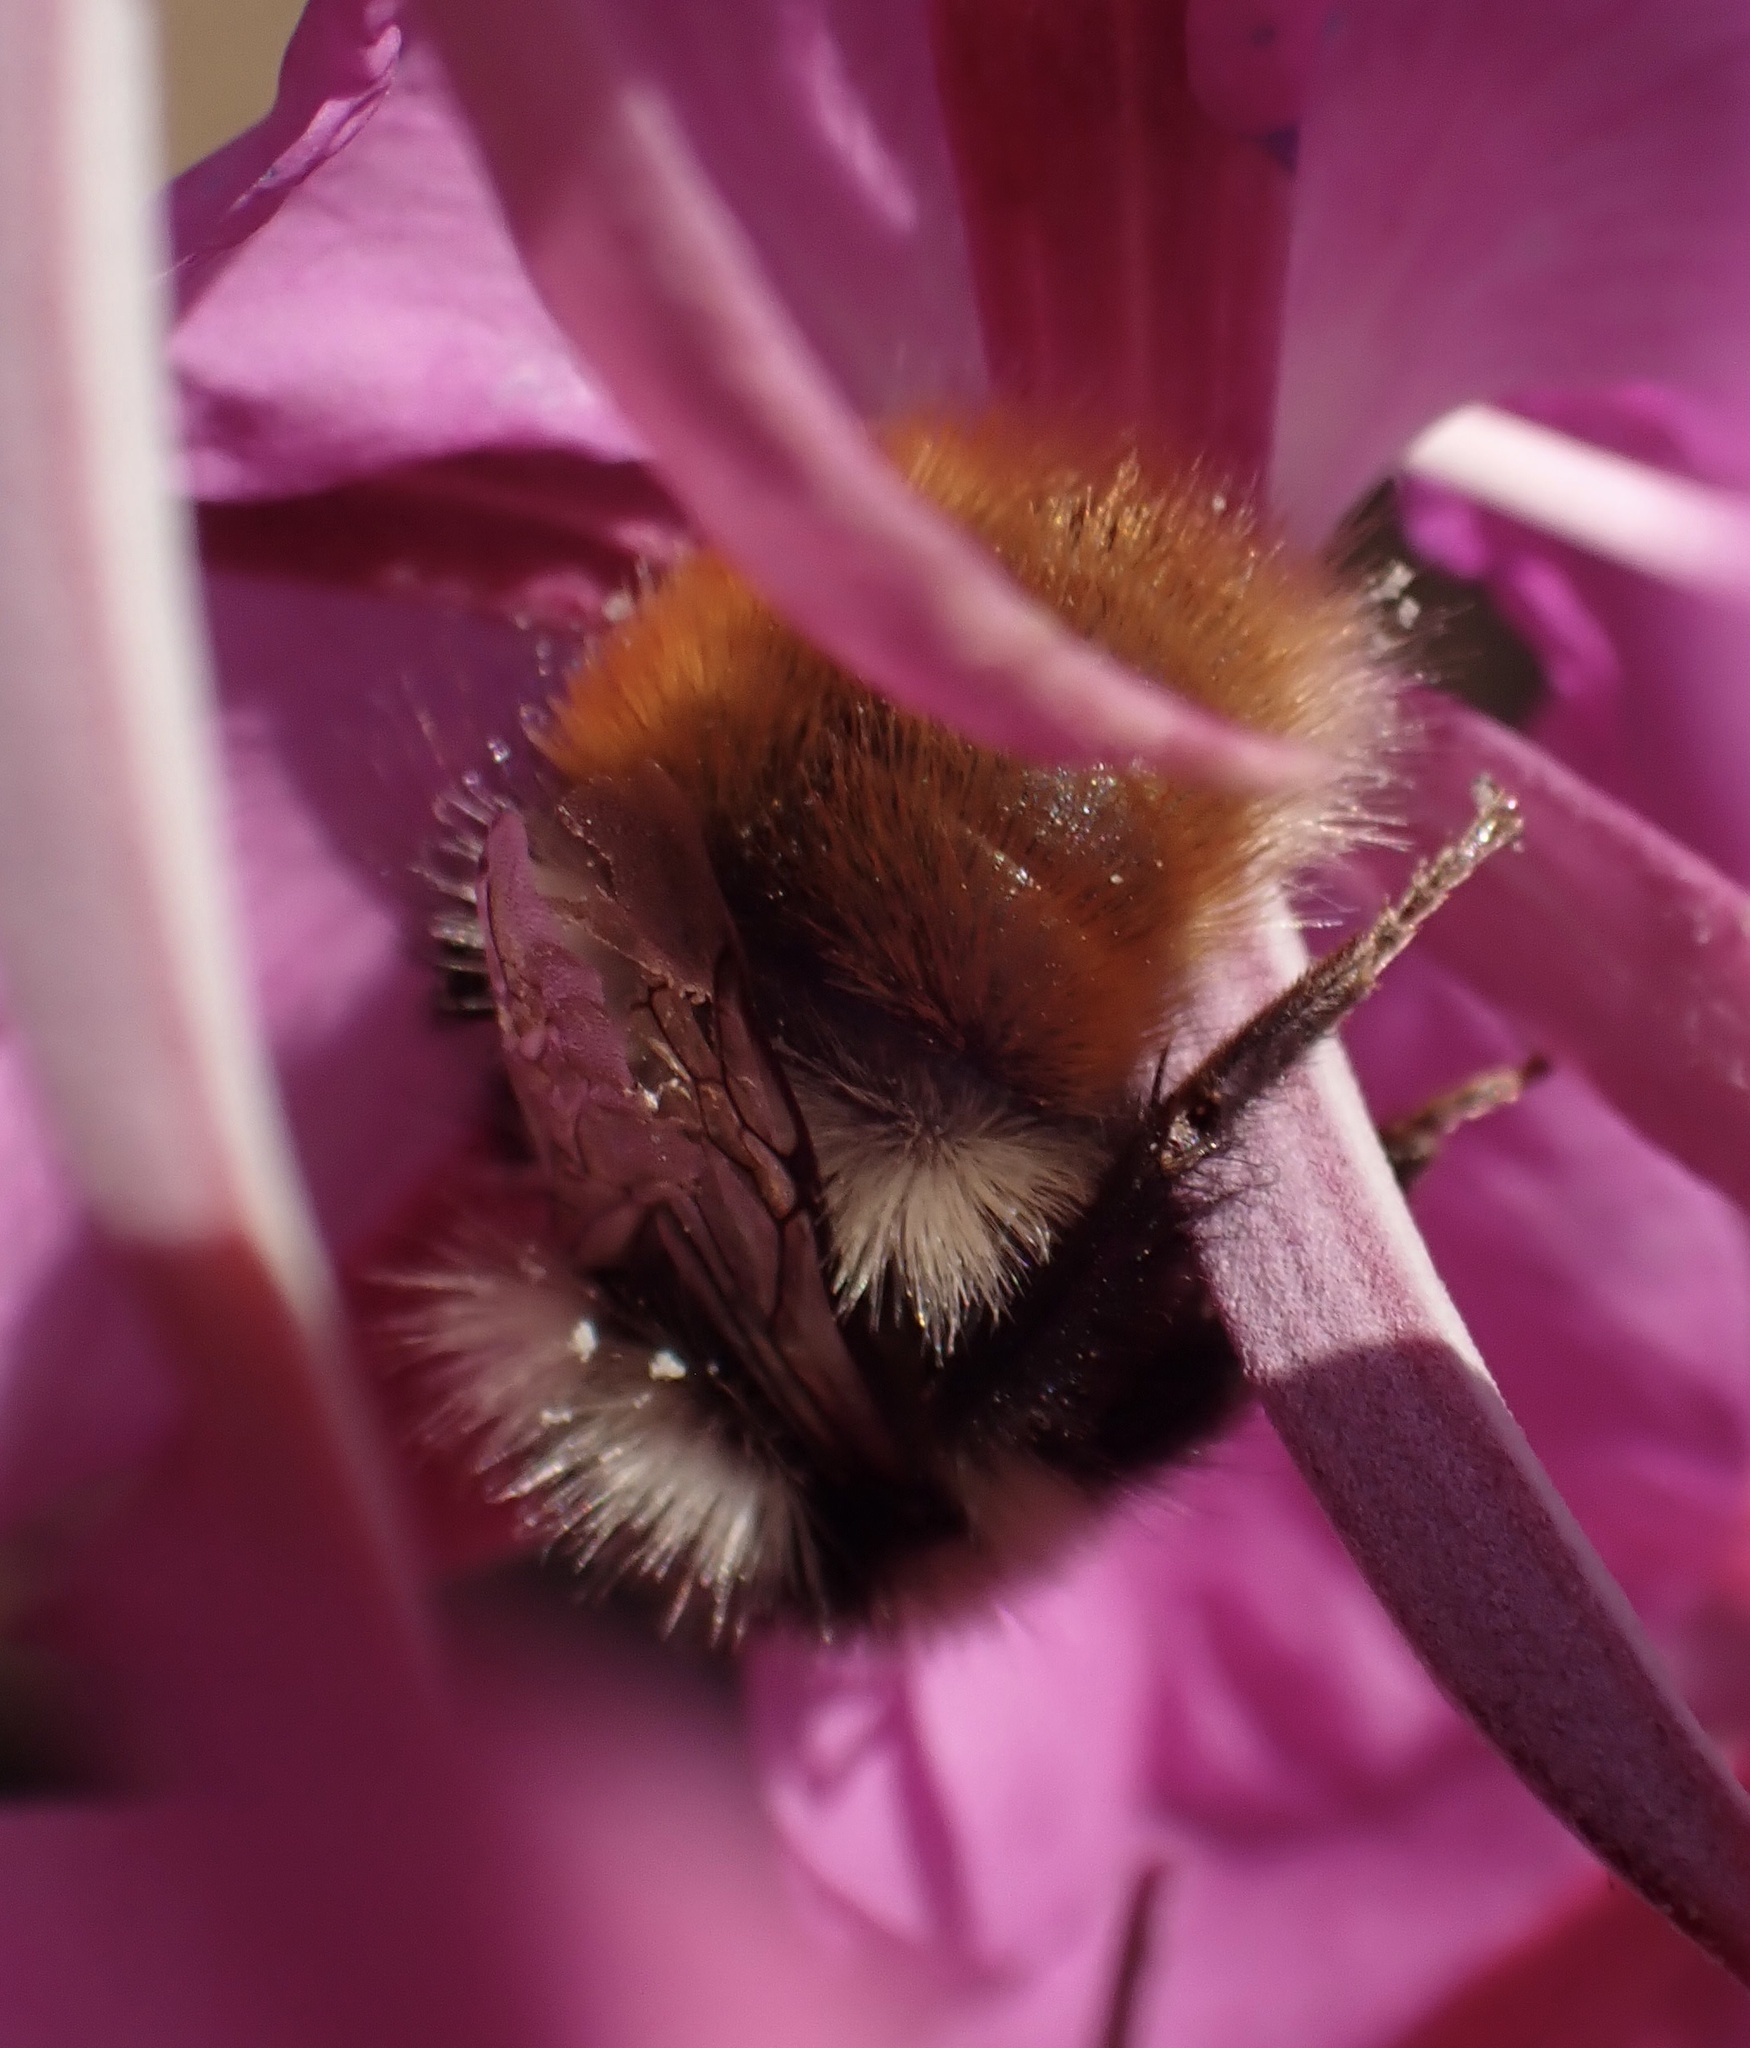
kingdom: Animalia
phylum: Arthropoda
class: Insecta
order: Hymenoptera
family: Apidae
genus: Bombus
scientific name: Bombus monticola
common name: Bilberry humble-bee
